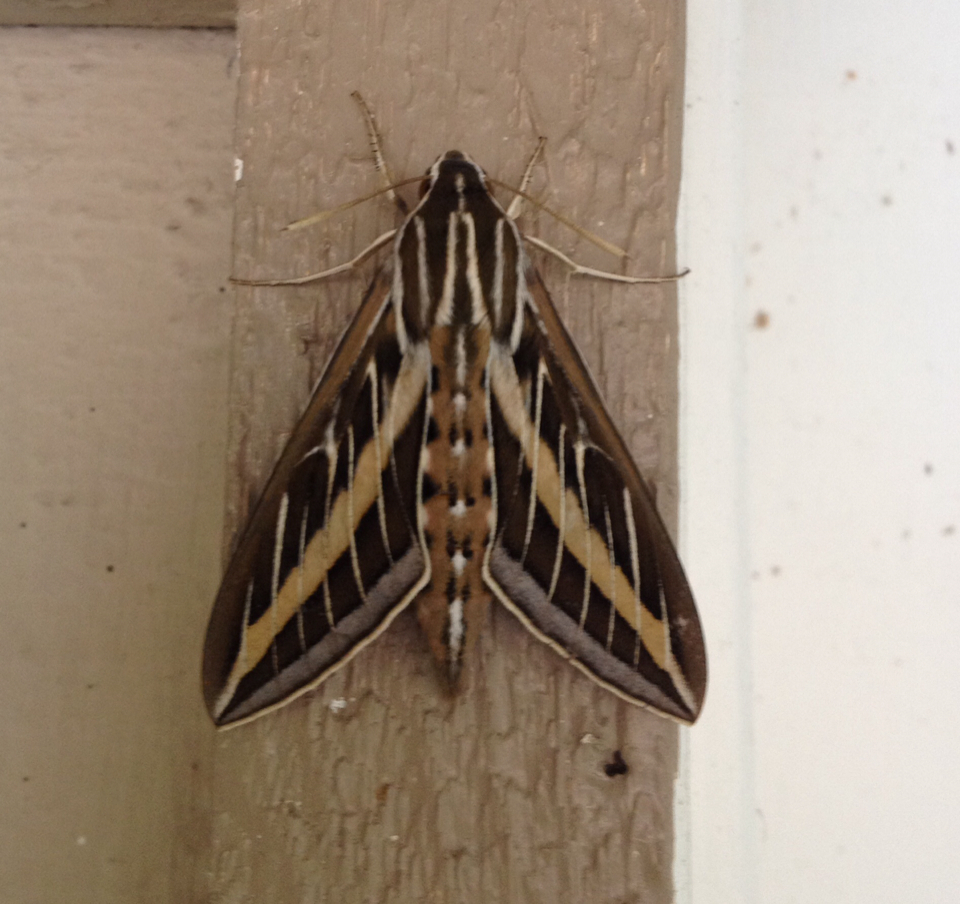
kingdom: Animalia
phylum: Arthropoda
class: Insecta
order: Lepidoptera
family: Sphingidae
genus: Hyles
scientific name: Hyles lineata
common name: White-lined sphinx
